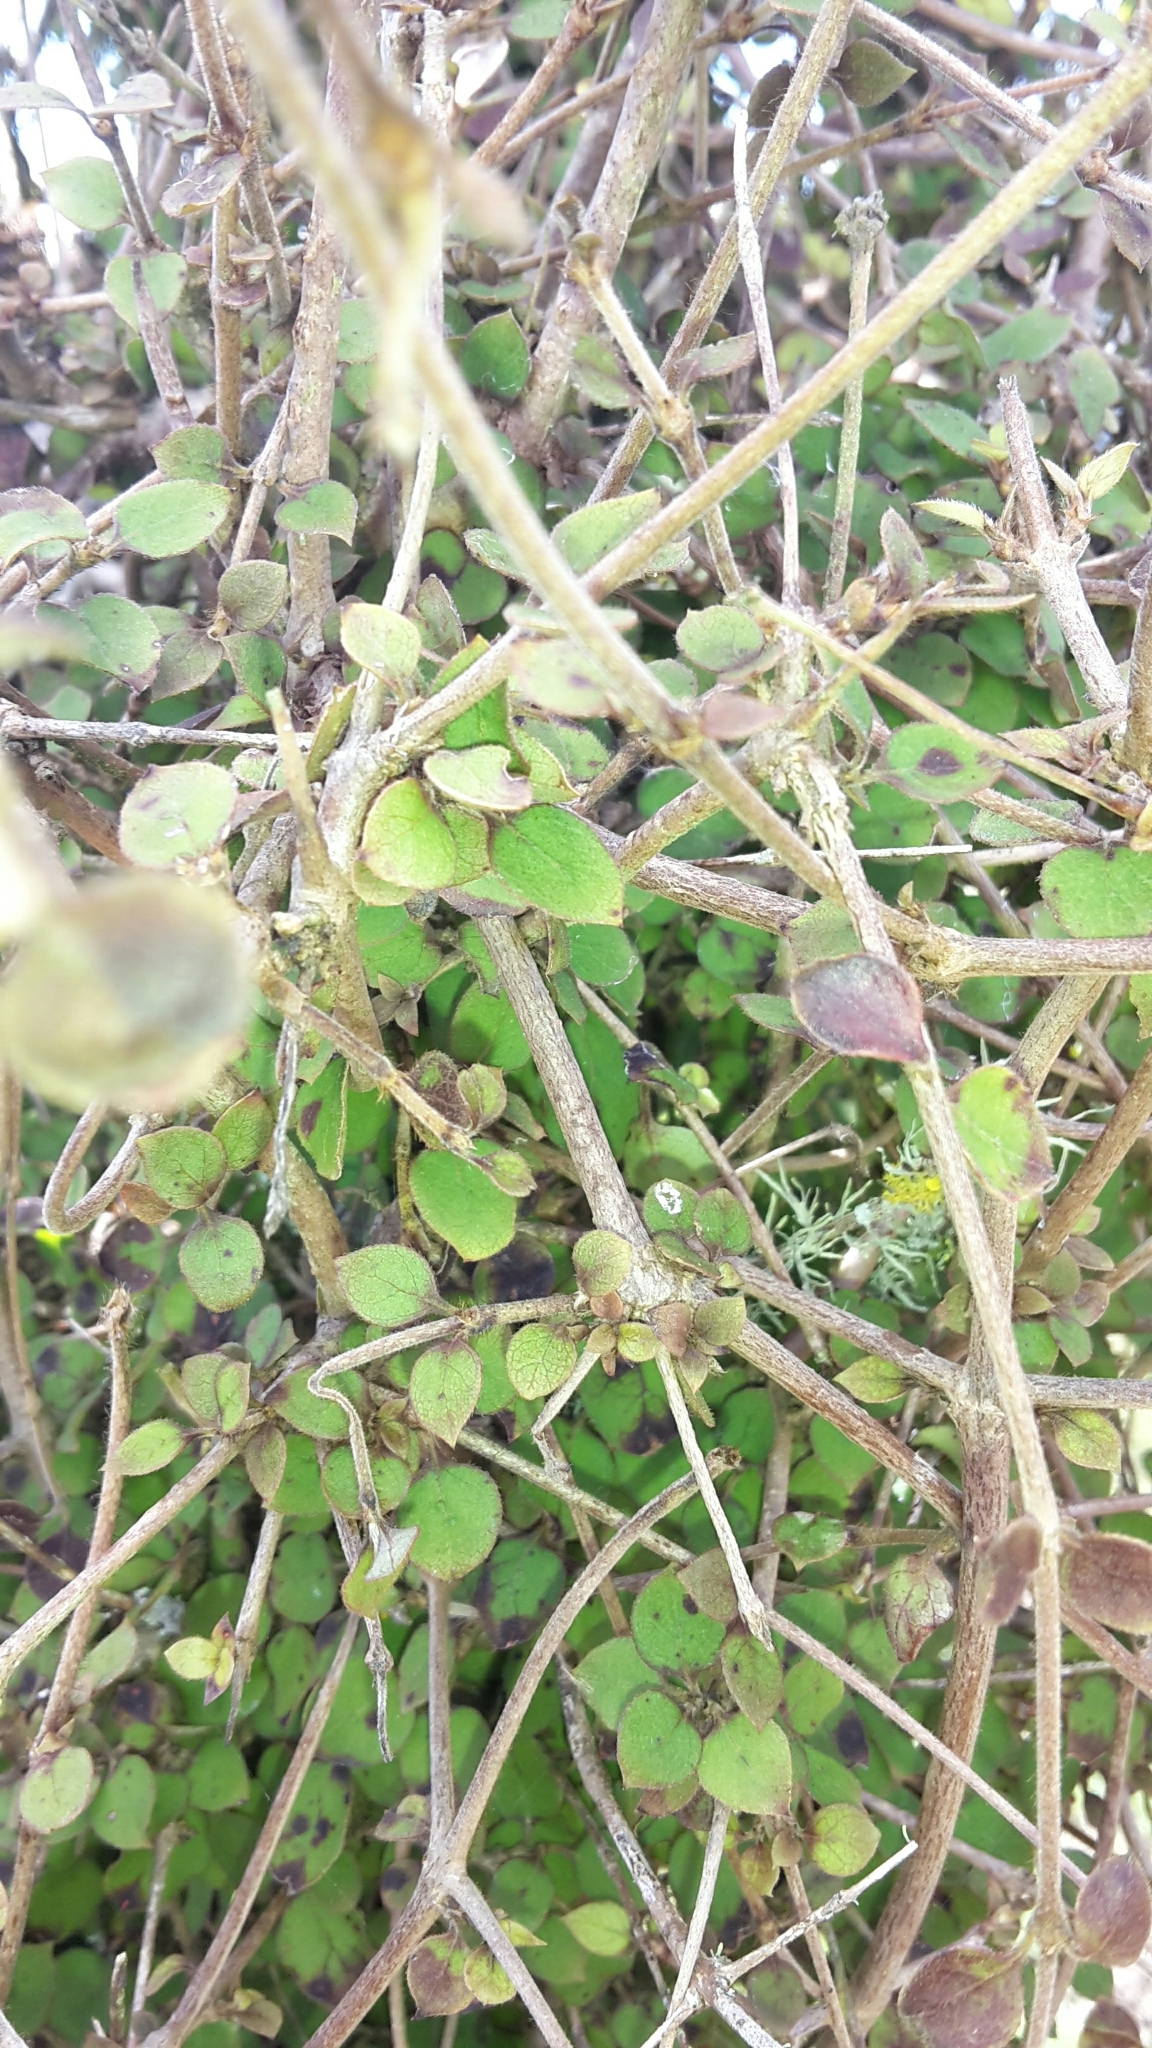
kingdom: Plantae
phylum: Tracheophyta
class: Magnoliopsida
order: Gentianales
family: Rubiaceae
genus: Coprosma
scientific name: Coprosma rotundifolia
